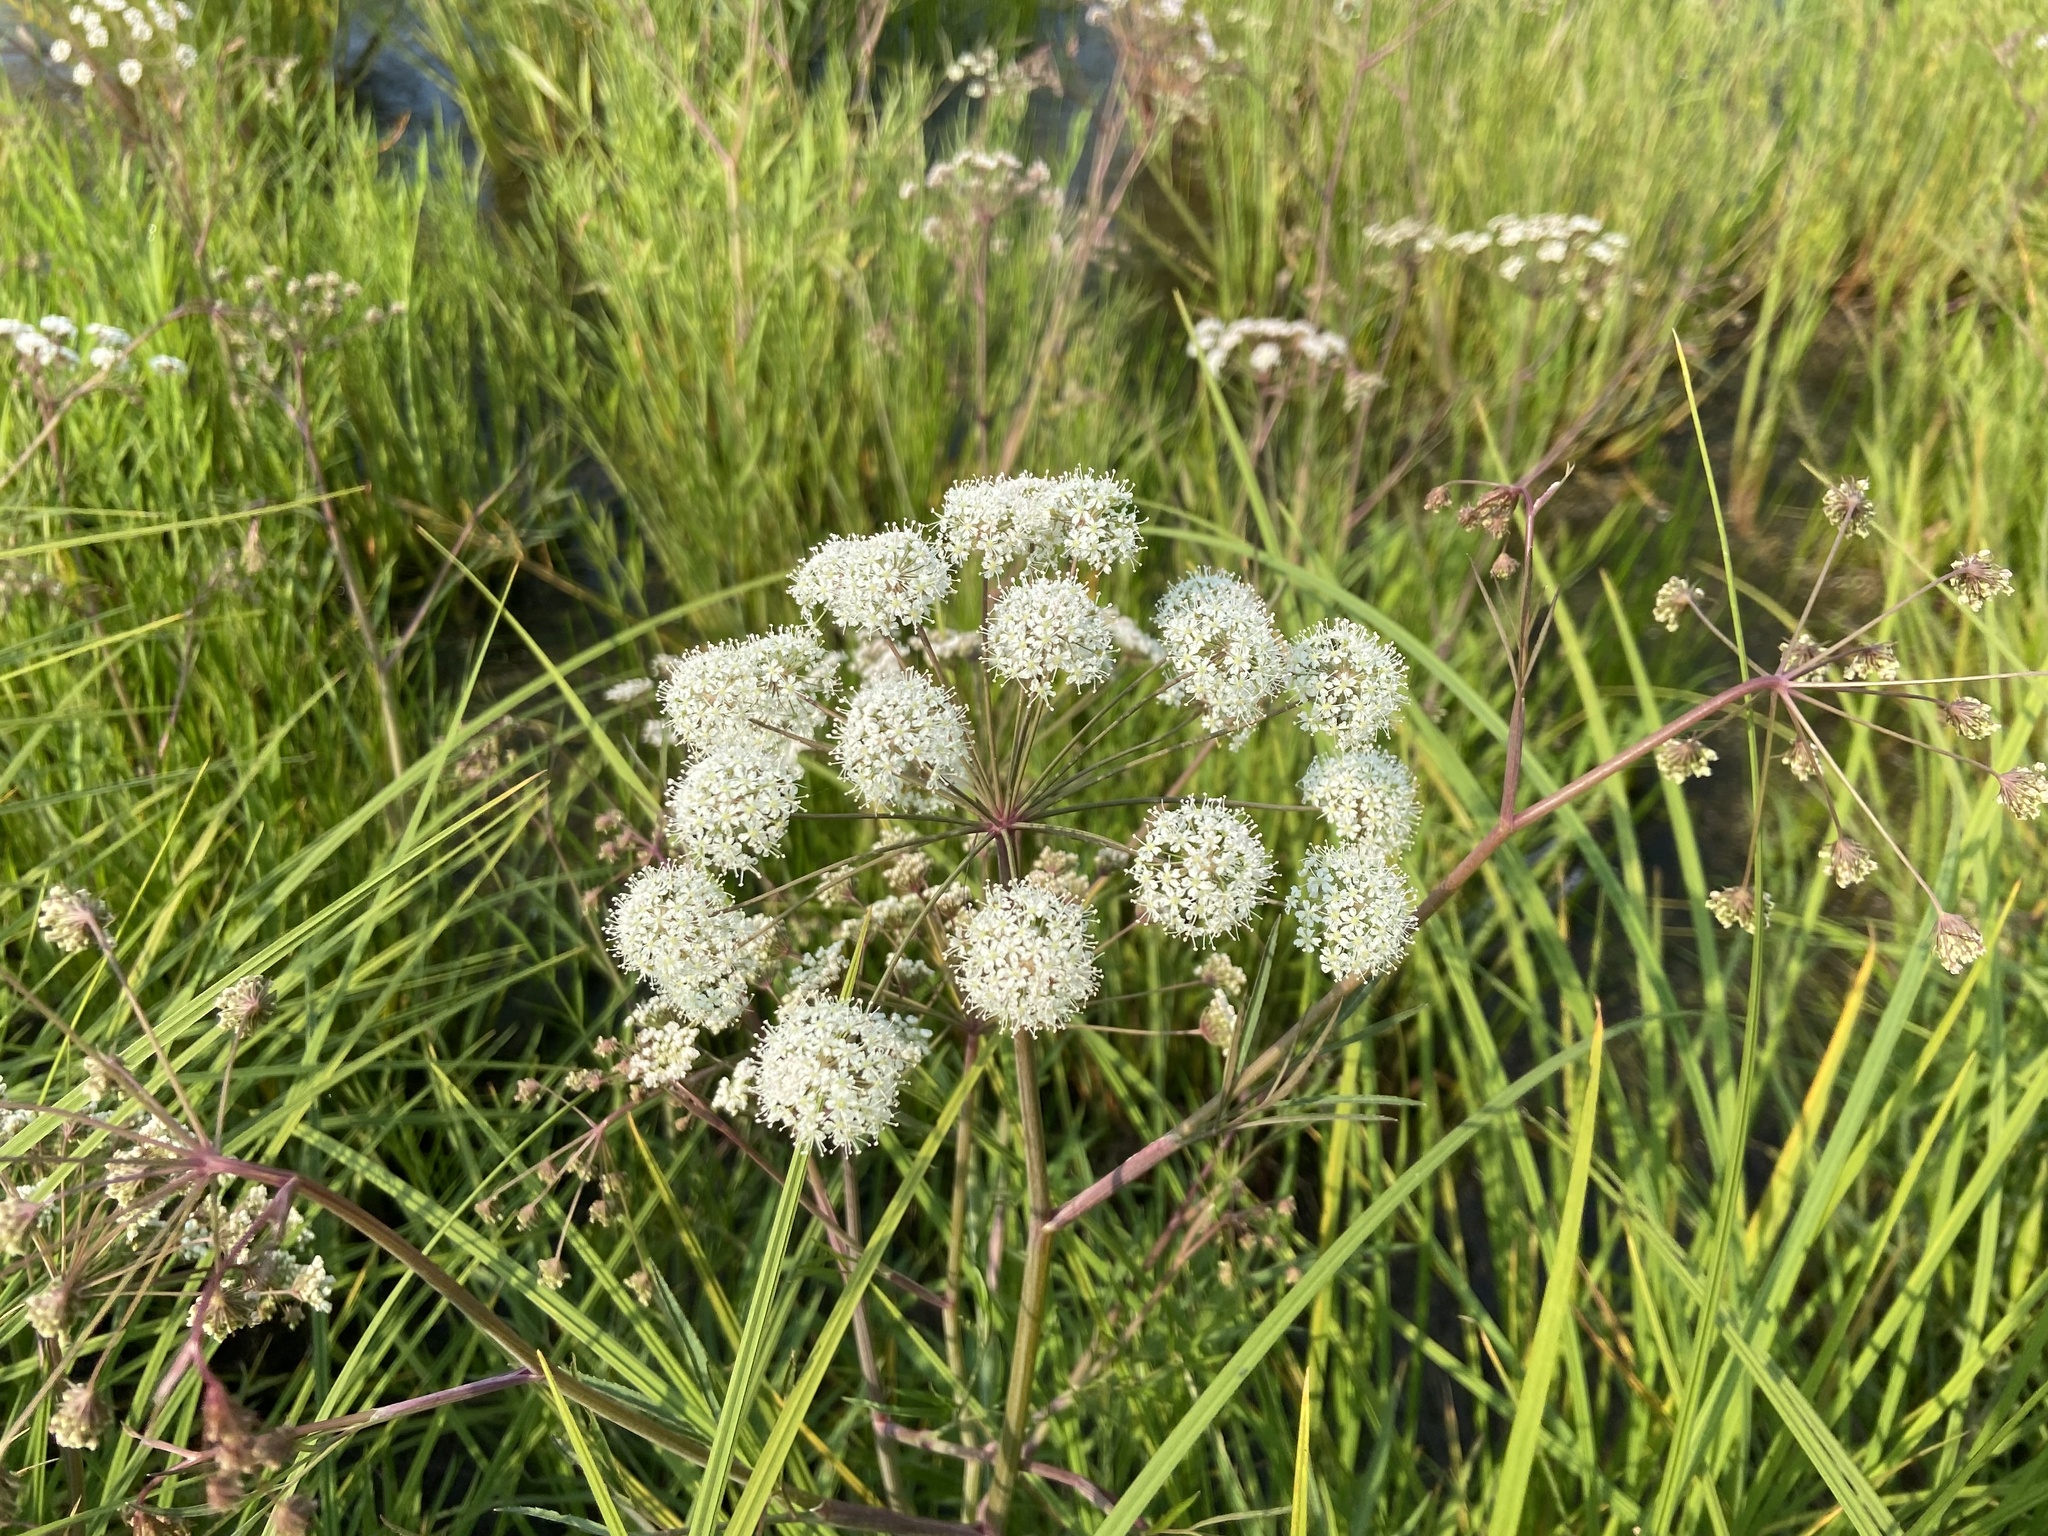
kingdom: Plantae
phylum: Tracheophyta
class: Magnoliopsida
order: Apiales
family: Apiaceae
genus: Cicuta
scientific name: Cicuta virosa
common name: Cowbane
